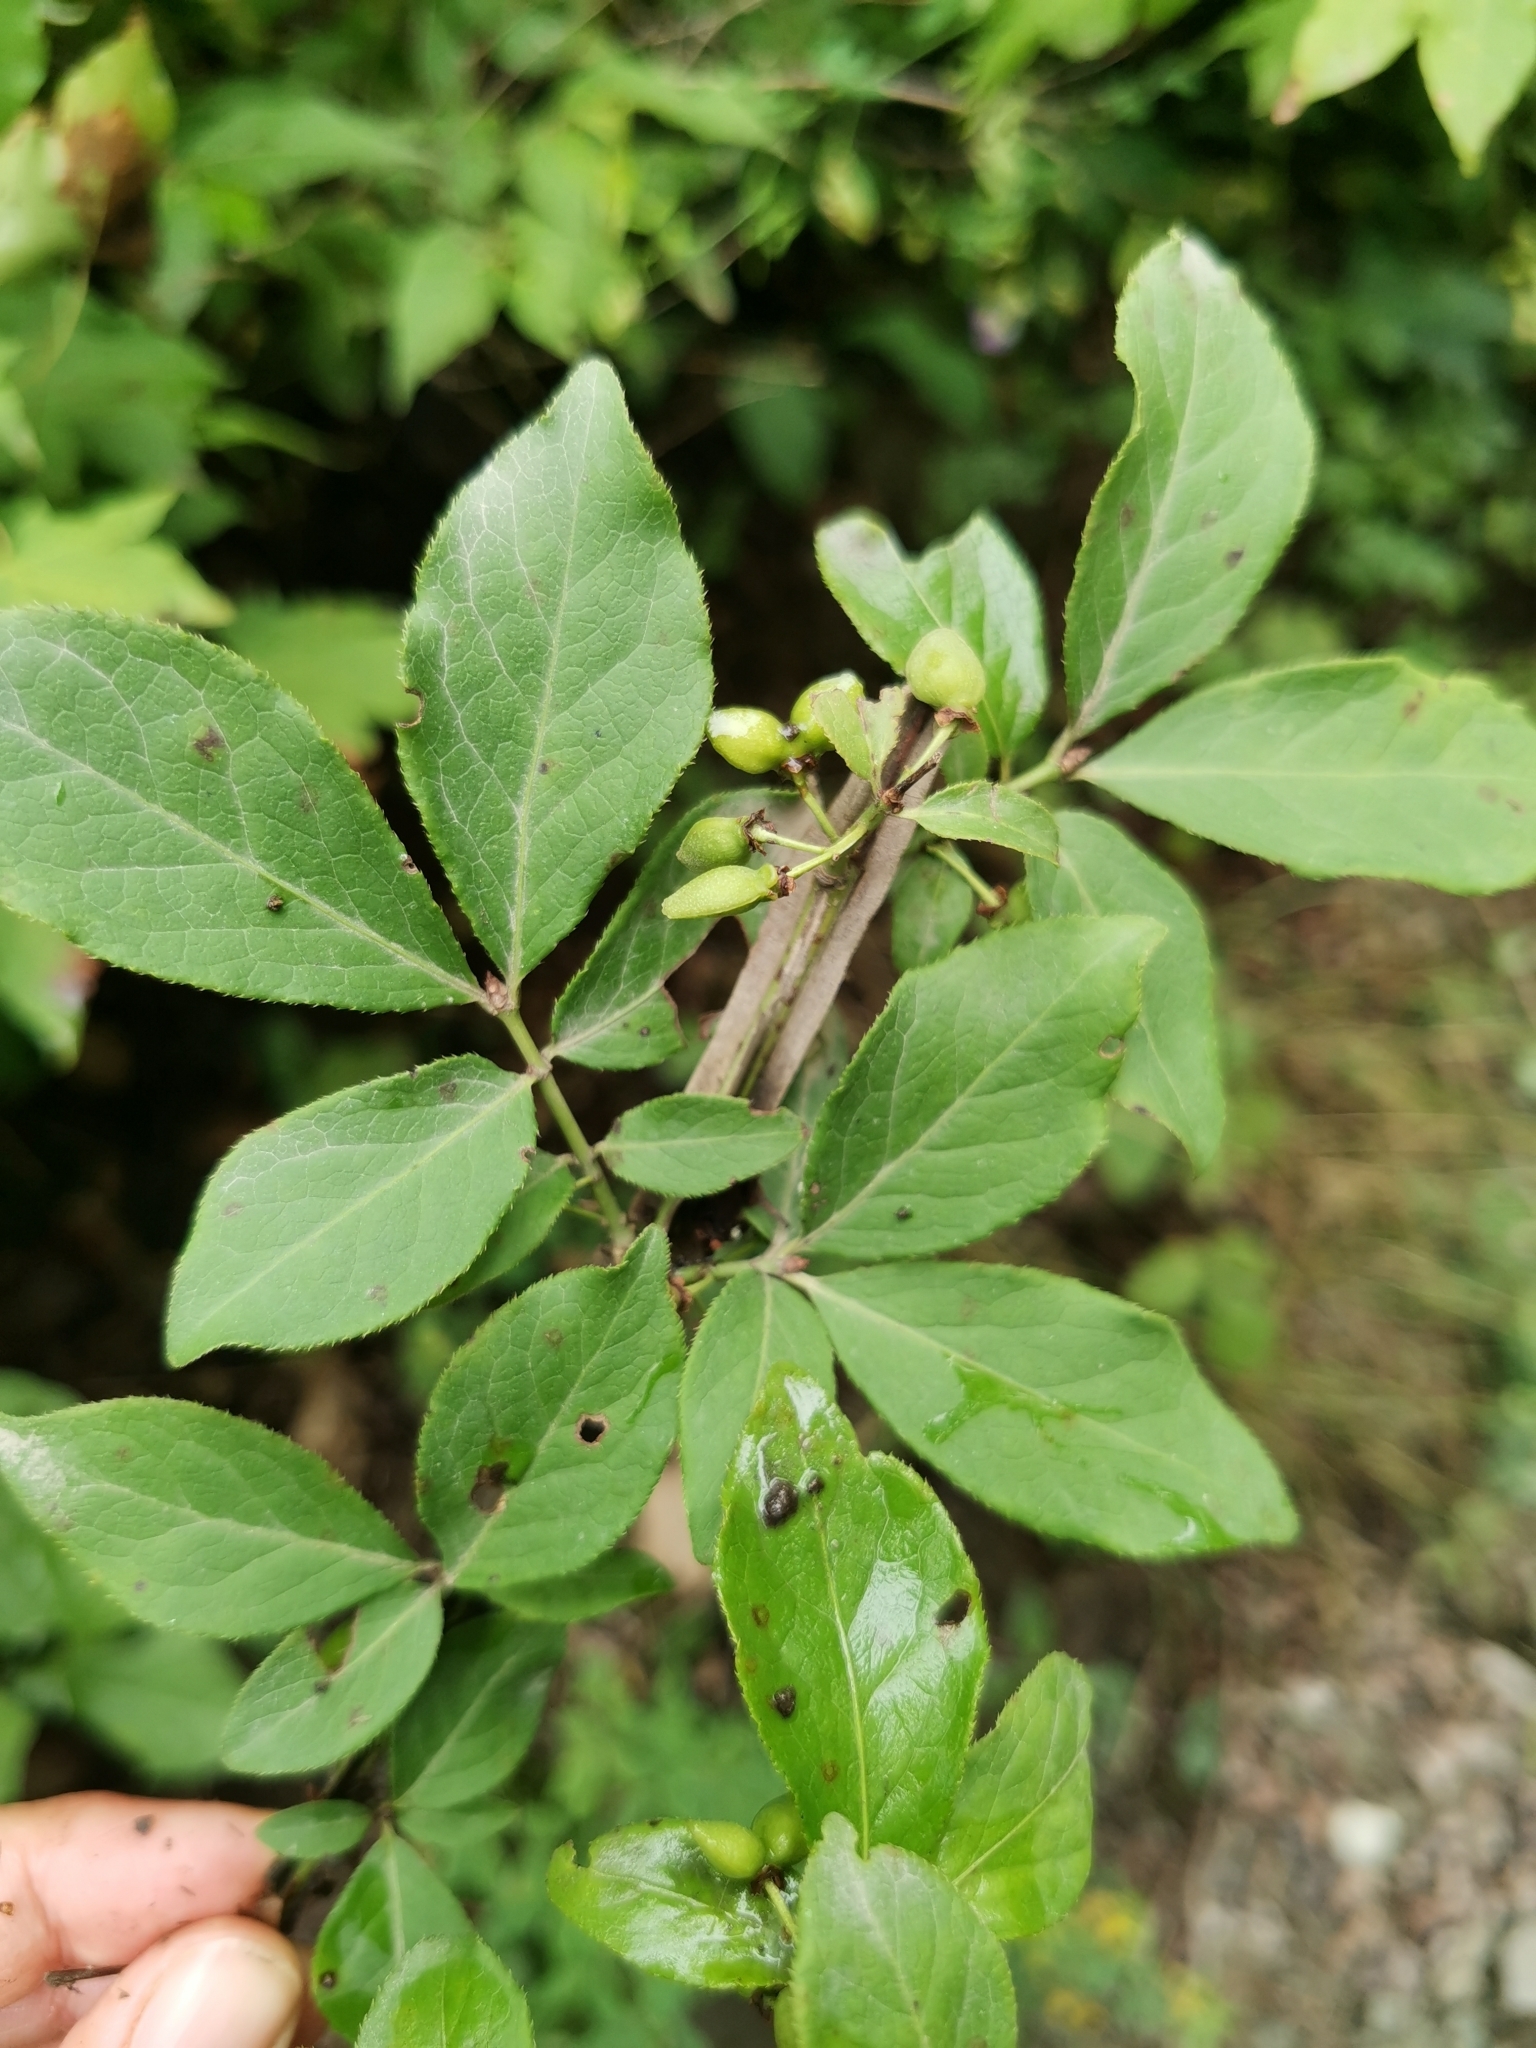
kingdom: Plantae
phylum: Tracheophyta
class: Magnoliopsida
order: Celastrales
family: Celastraceae
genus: Euonymus
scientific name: Euonymus alatus
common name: Winged euonymus
